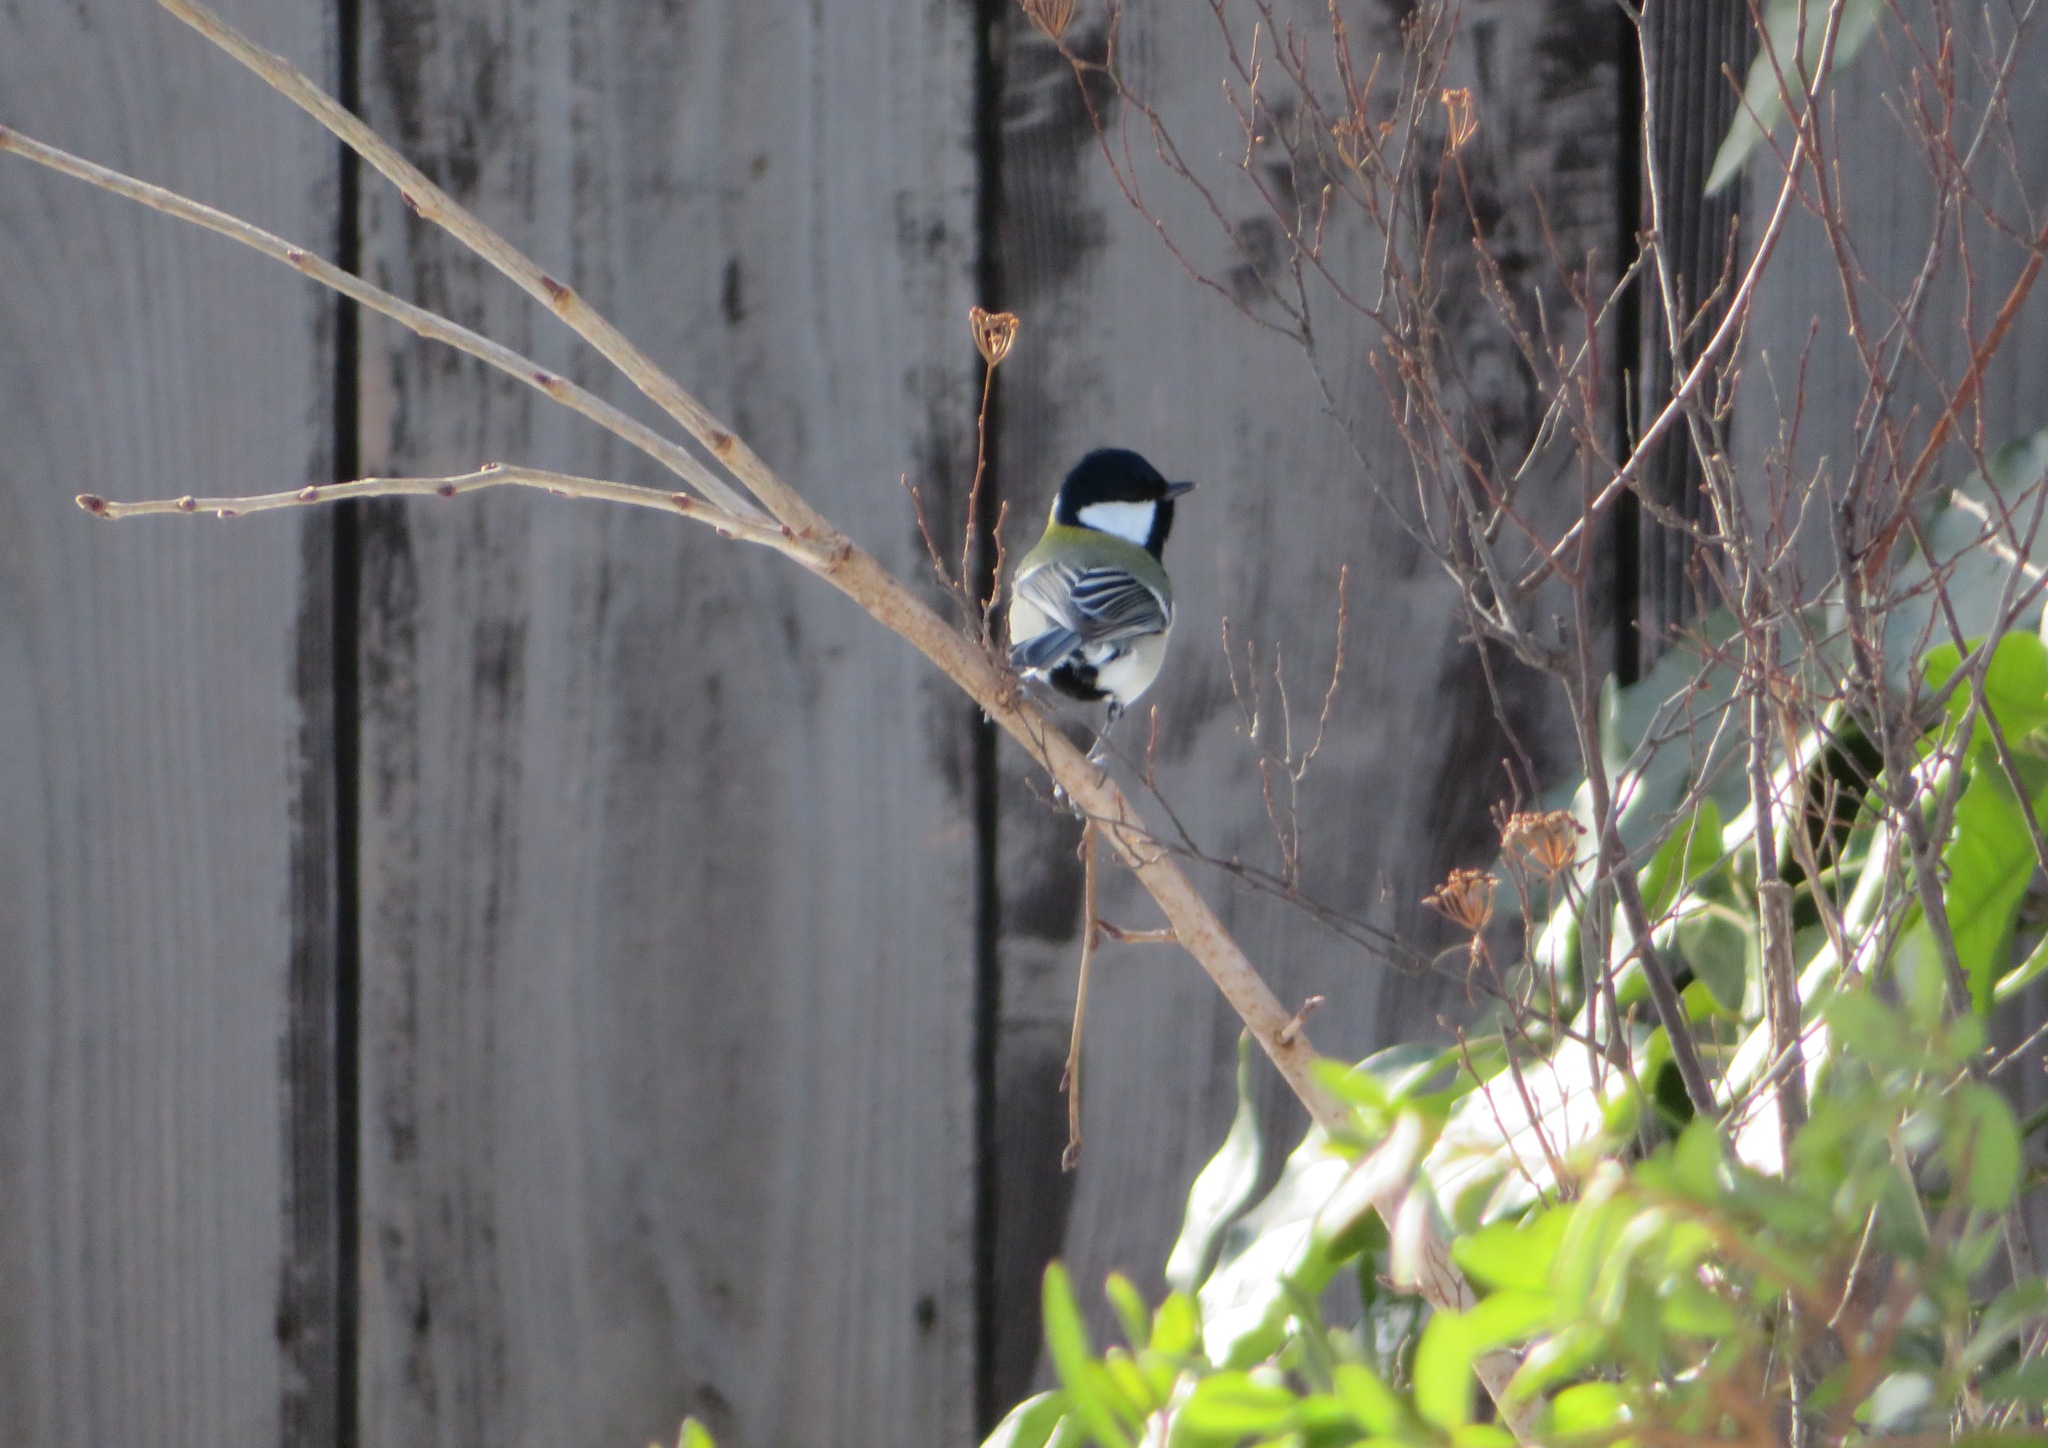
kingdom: Animalia
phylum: Chordata
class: Aves
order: Passeriformes
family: Paridae
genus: Parus
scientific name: Parus minor
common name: Japanese tit
